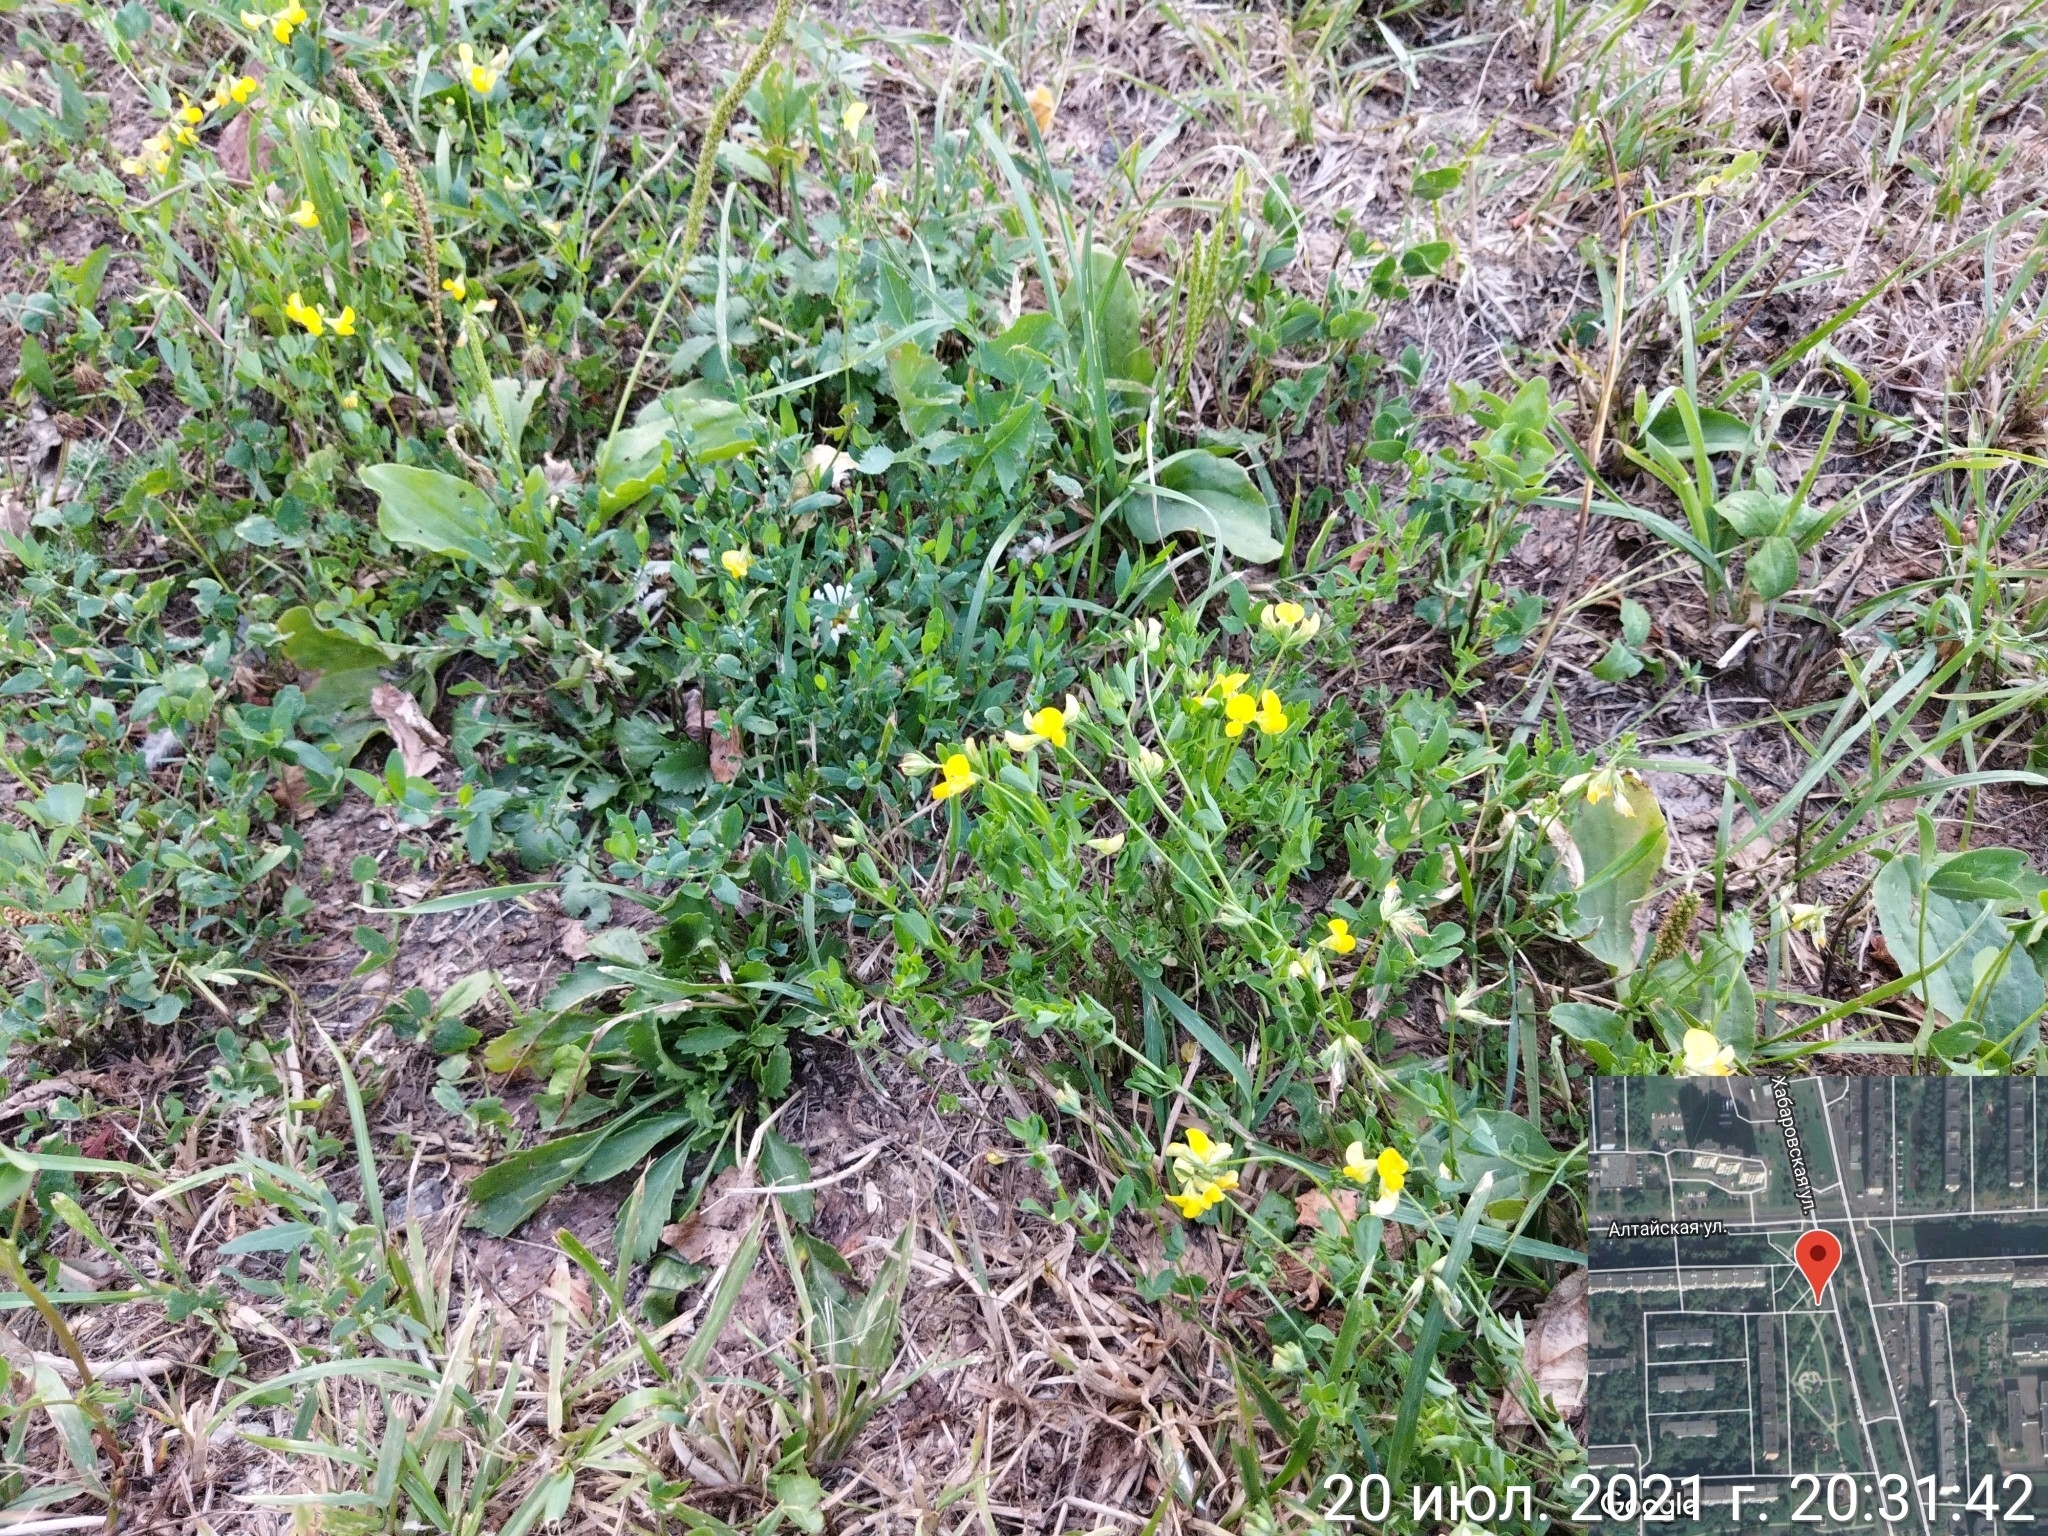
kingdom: Plantae
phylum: Tracheophyta
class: Magnoliopsida
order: Fabales
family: Fabaceae
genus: Lotus
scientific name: Lotus corniculatus
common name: Common bird's-foot-trefoil
